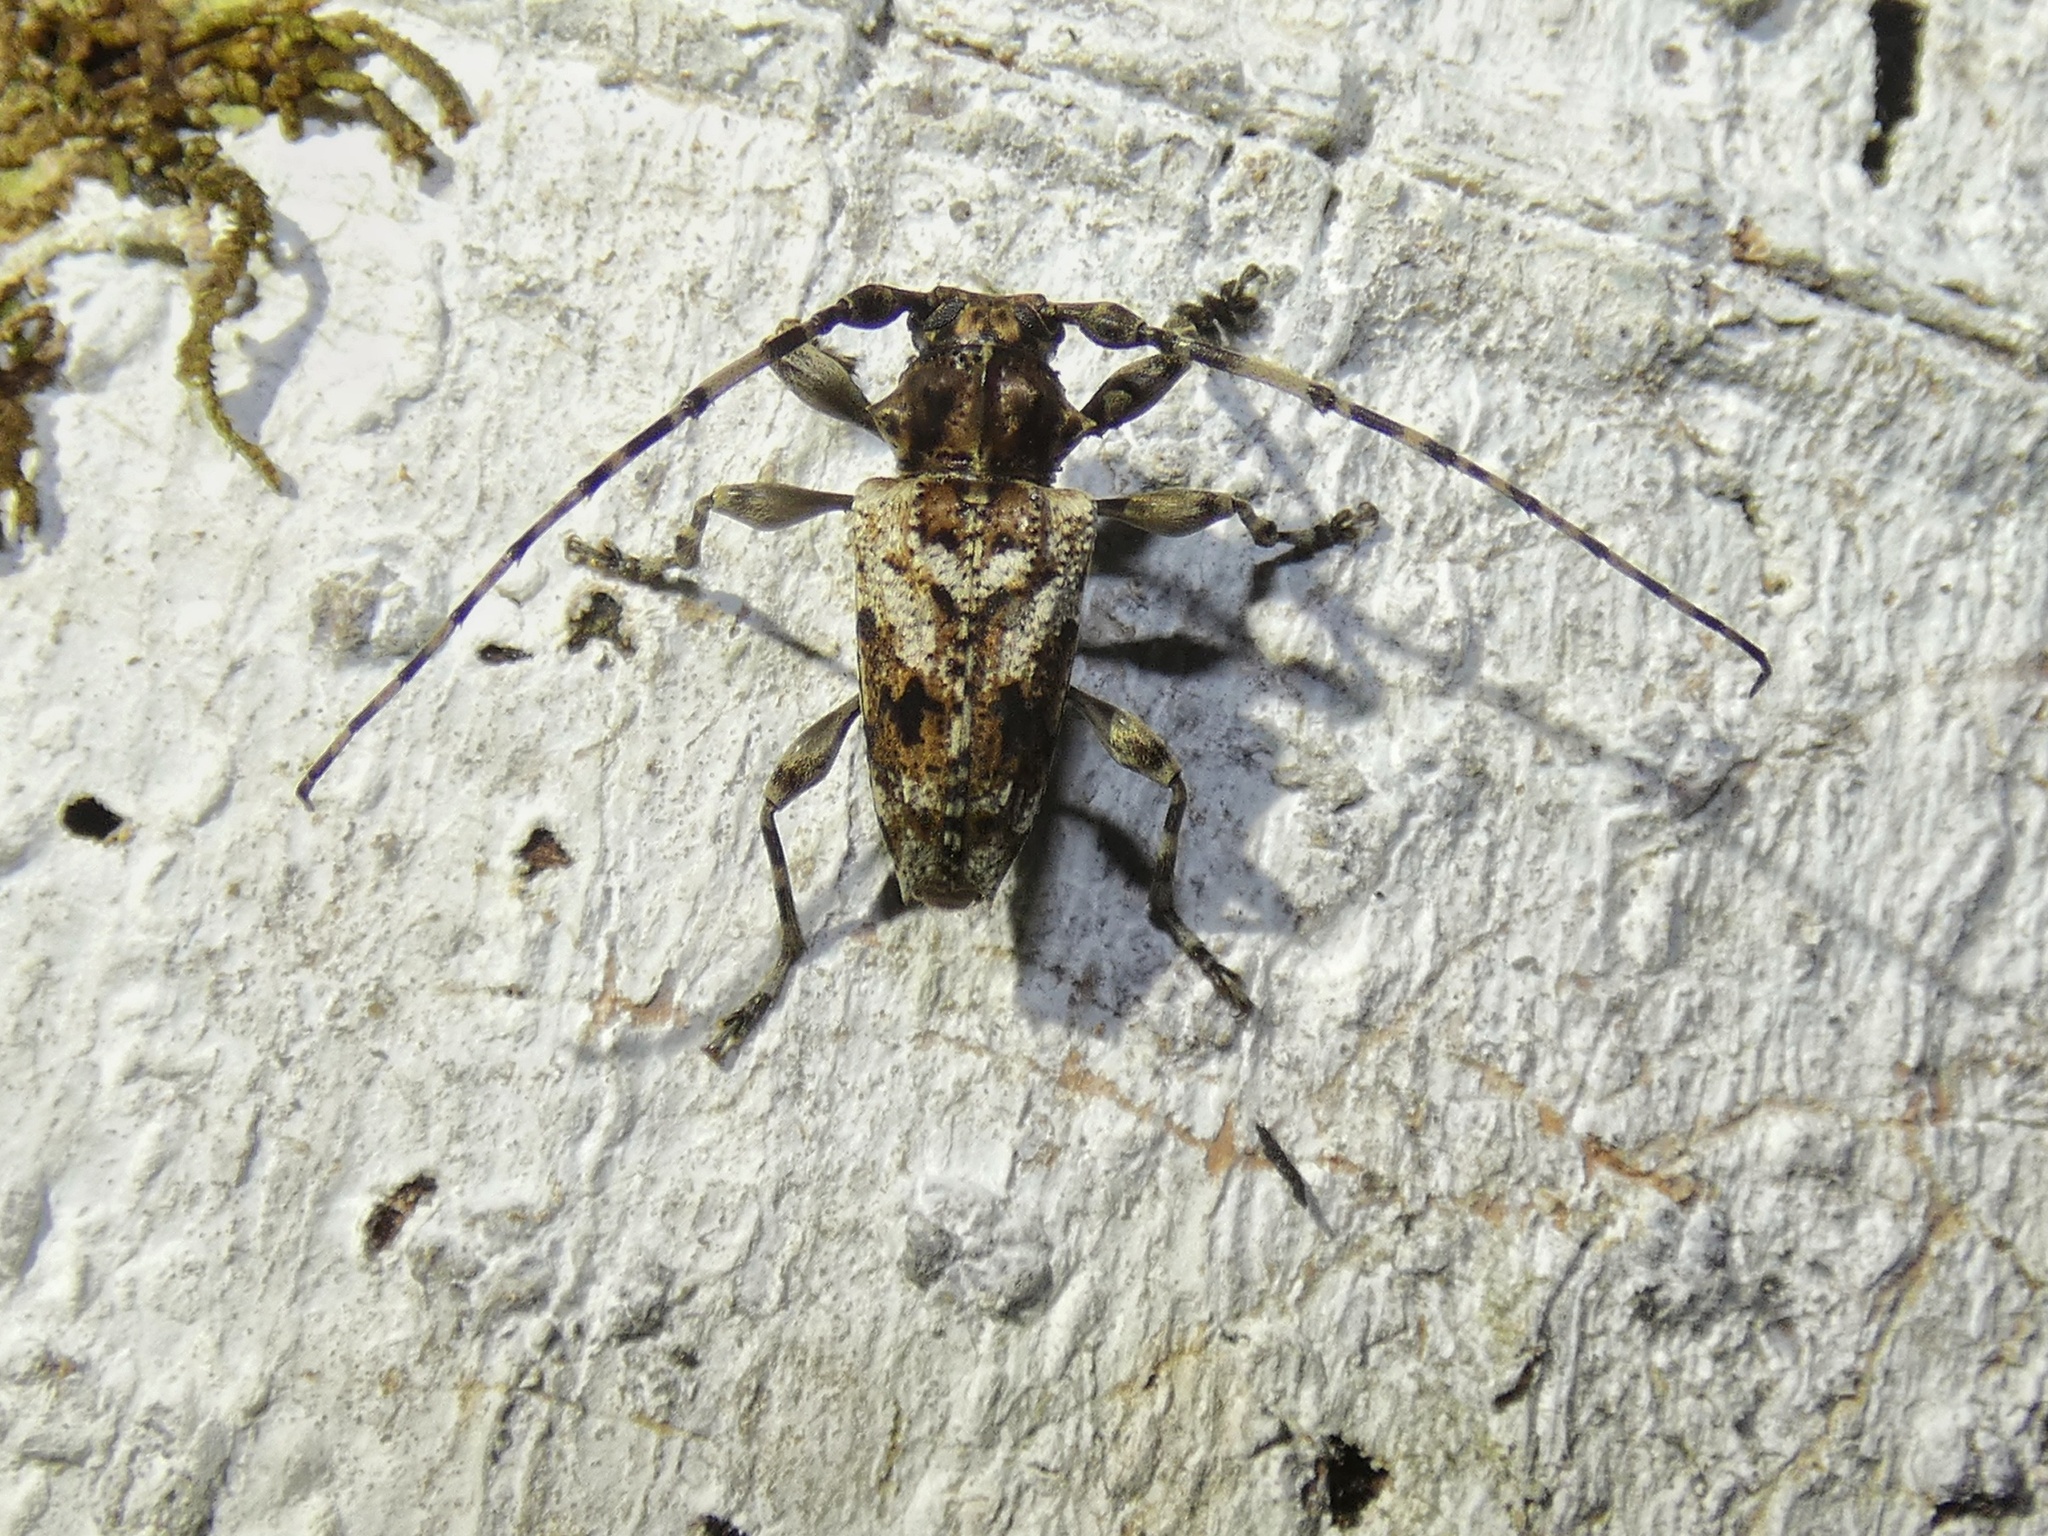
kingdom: Animalia
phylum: Arthropoda
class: Insecta
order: Coleoptera
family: Cerambycidae
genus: Aegomorphus
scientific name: Aegomorphus
